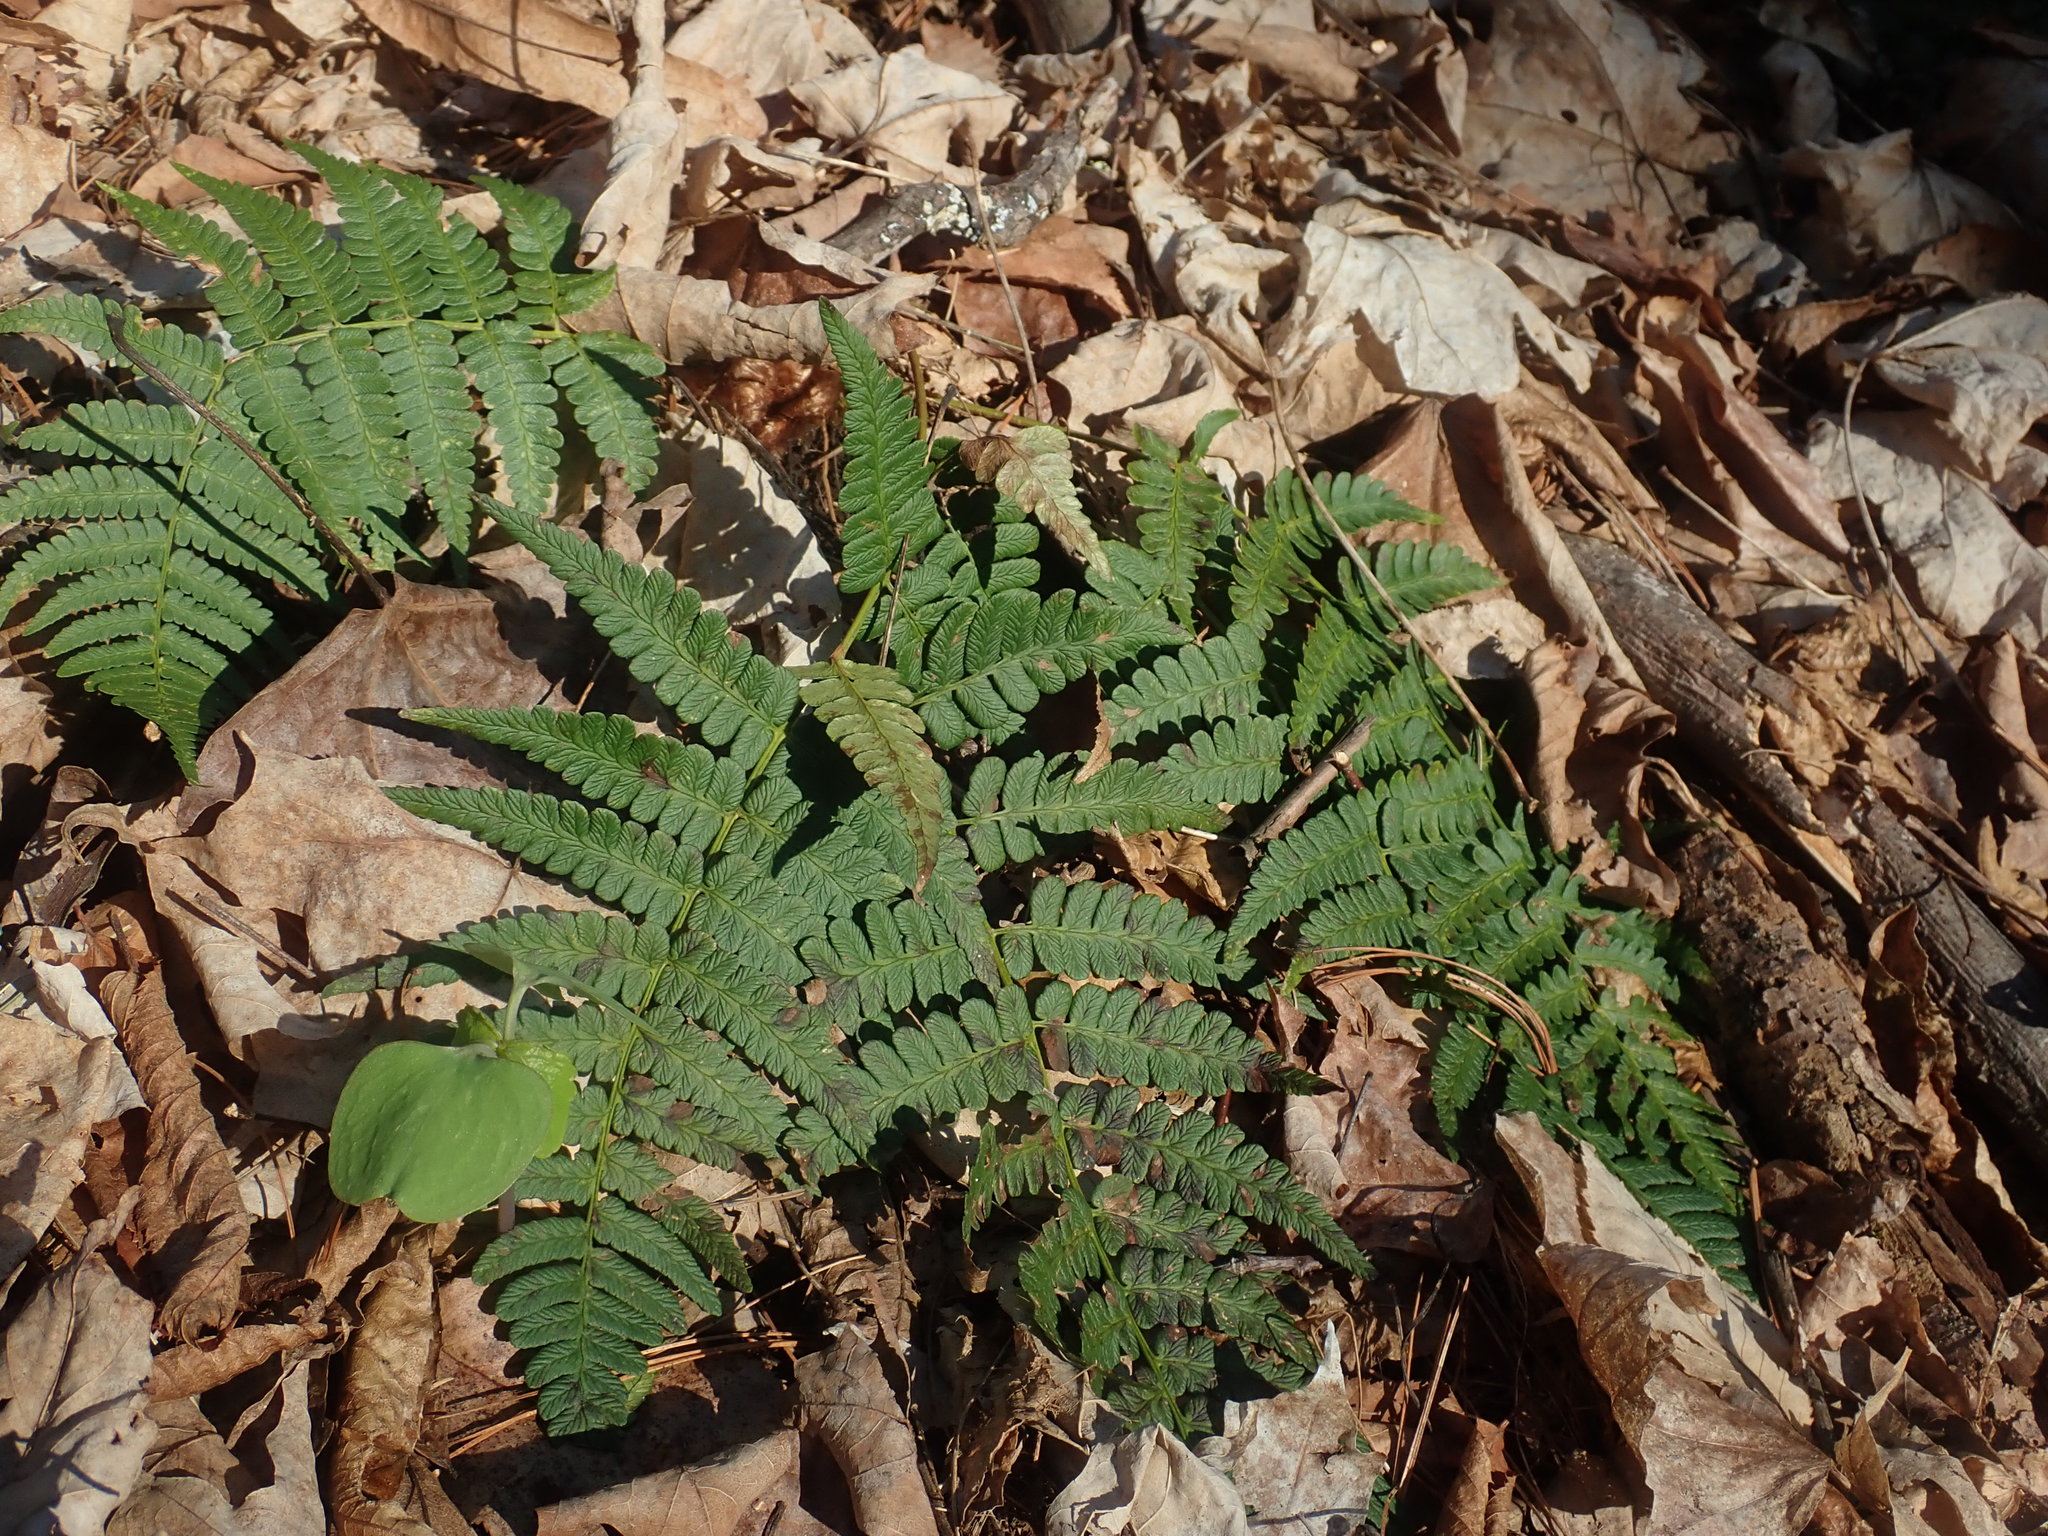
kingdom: Plantae
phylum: Tracheophyta
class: Polypodiopsida
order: Polypodiales
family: Dryopteridaceae
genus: Dryopteris
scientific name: Dryopteris marginalis
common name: Marginal wood fern
